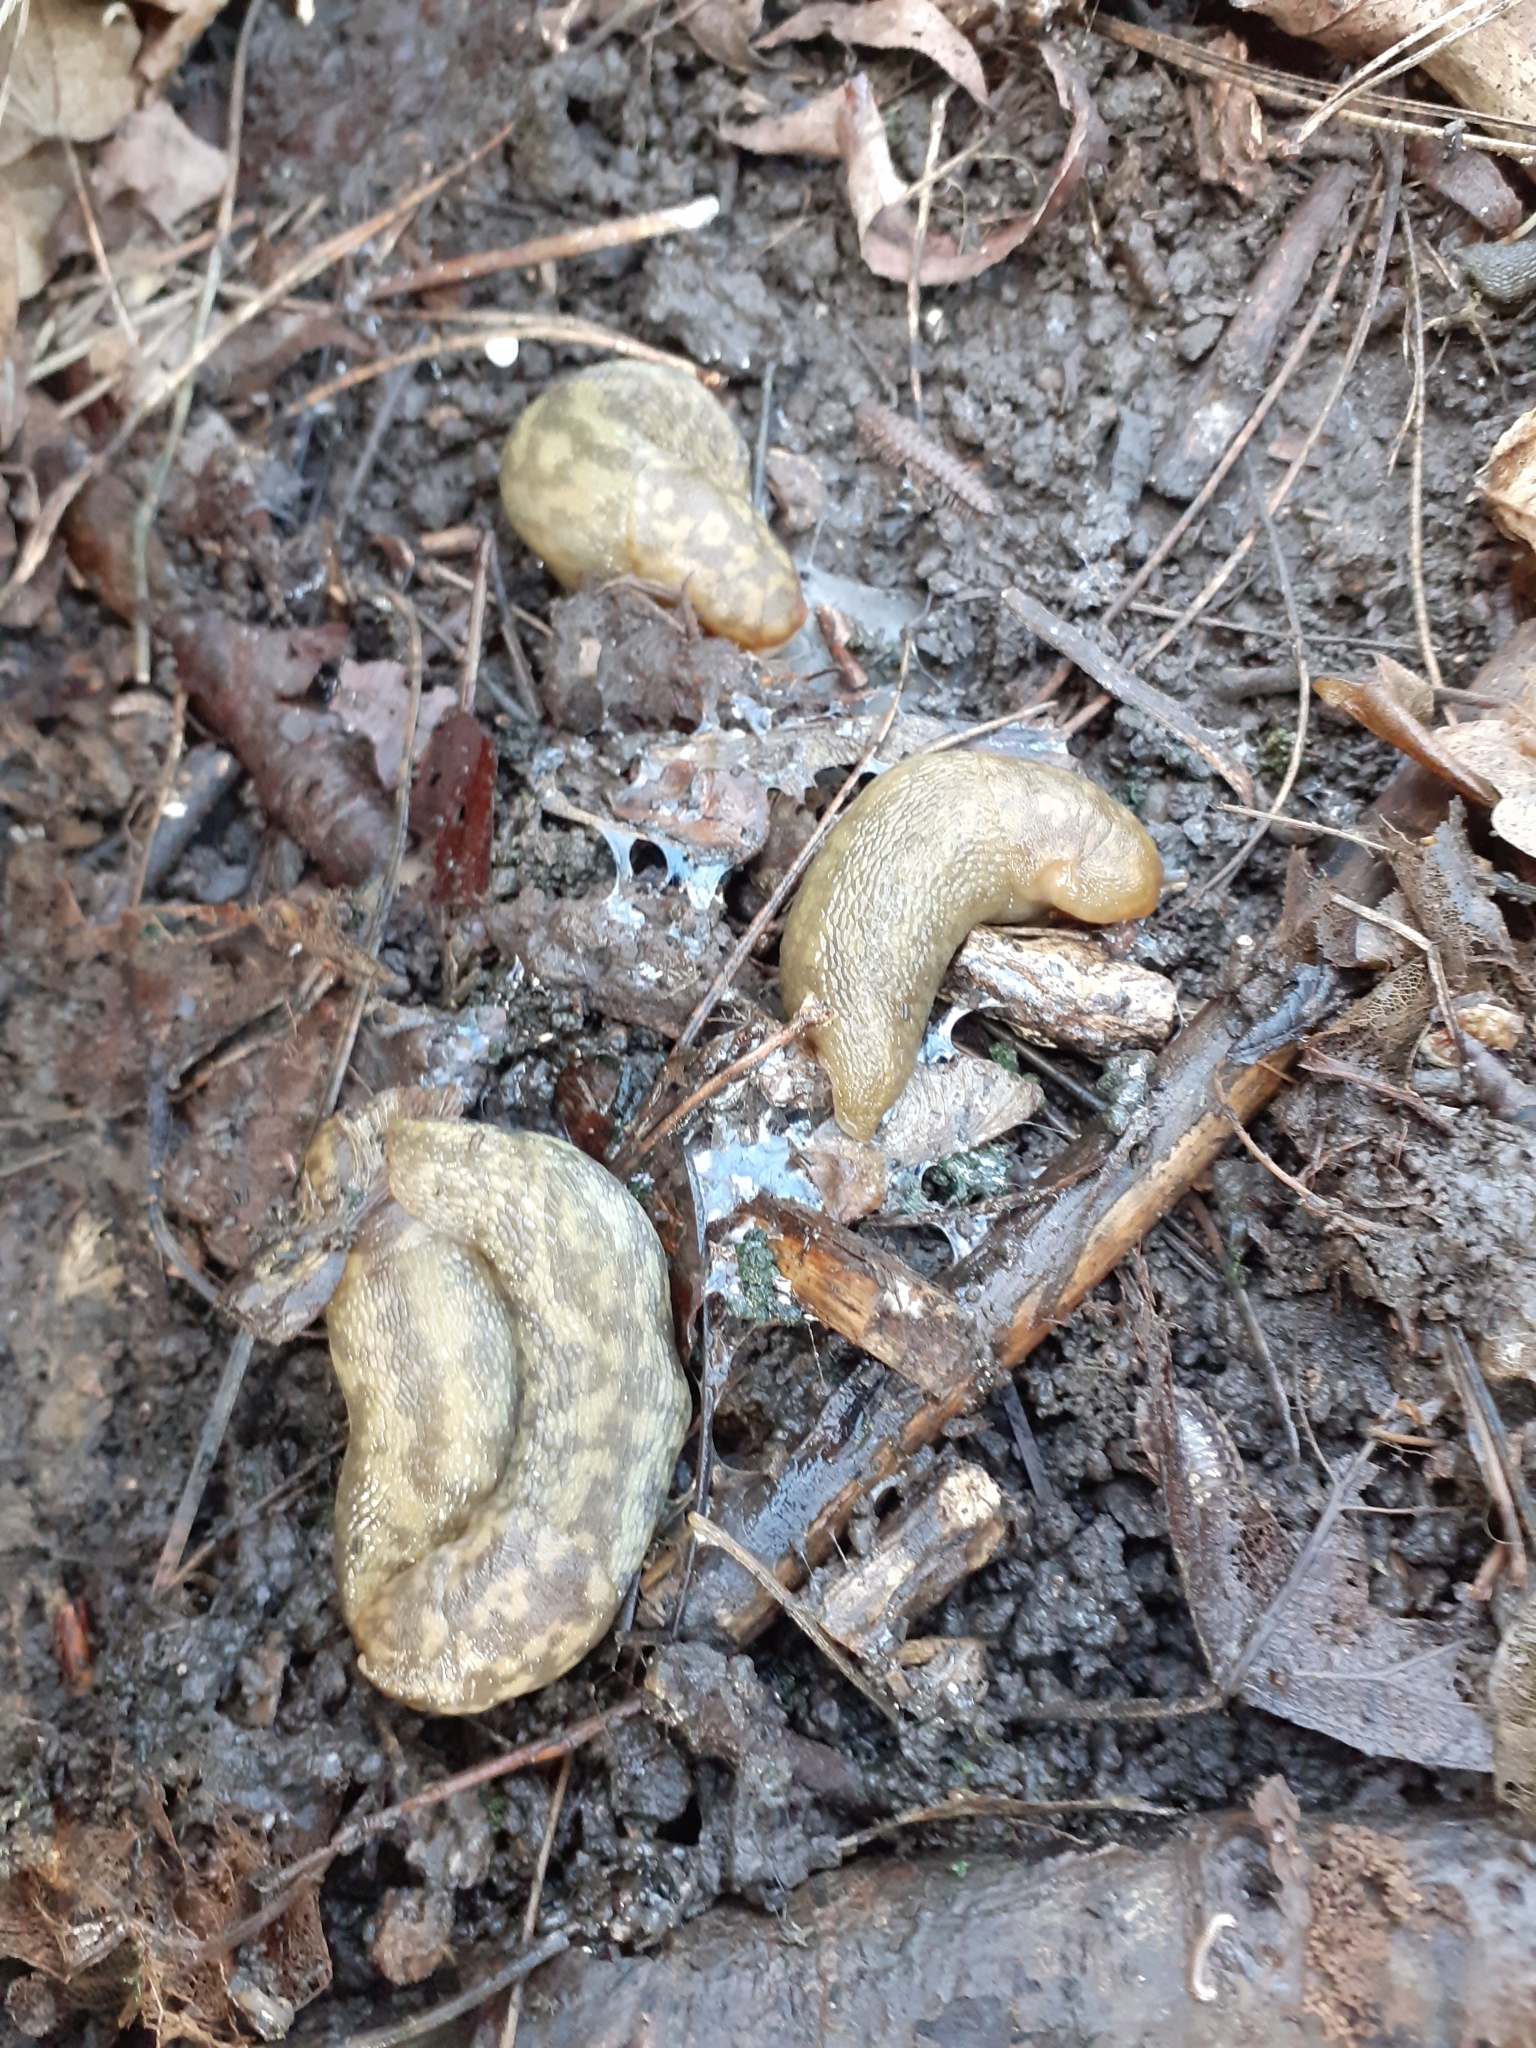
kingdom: Animalia
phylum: Mollusca
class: Gastropoda
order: Stylommatophora
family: Limacidae
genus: Limacus
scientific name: Limacus maculatus
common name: Irish yellow slug
